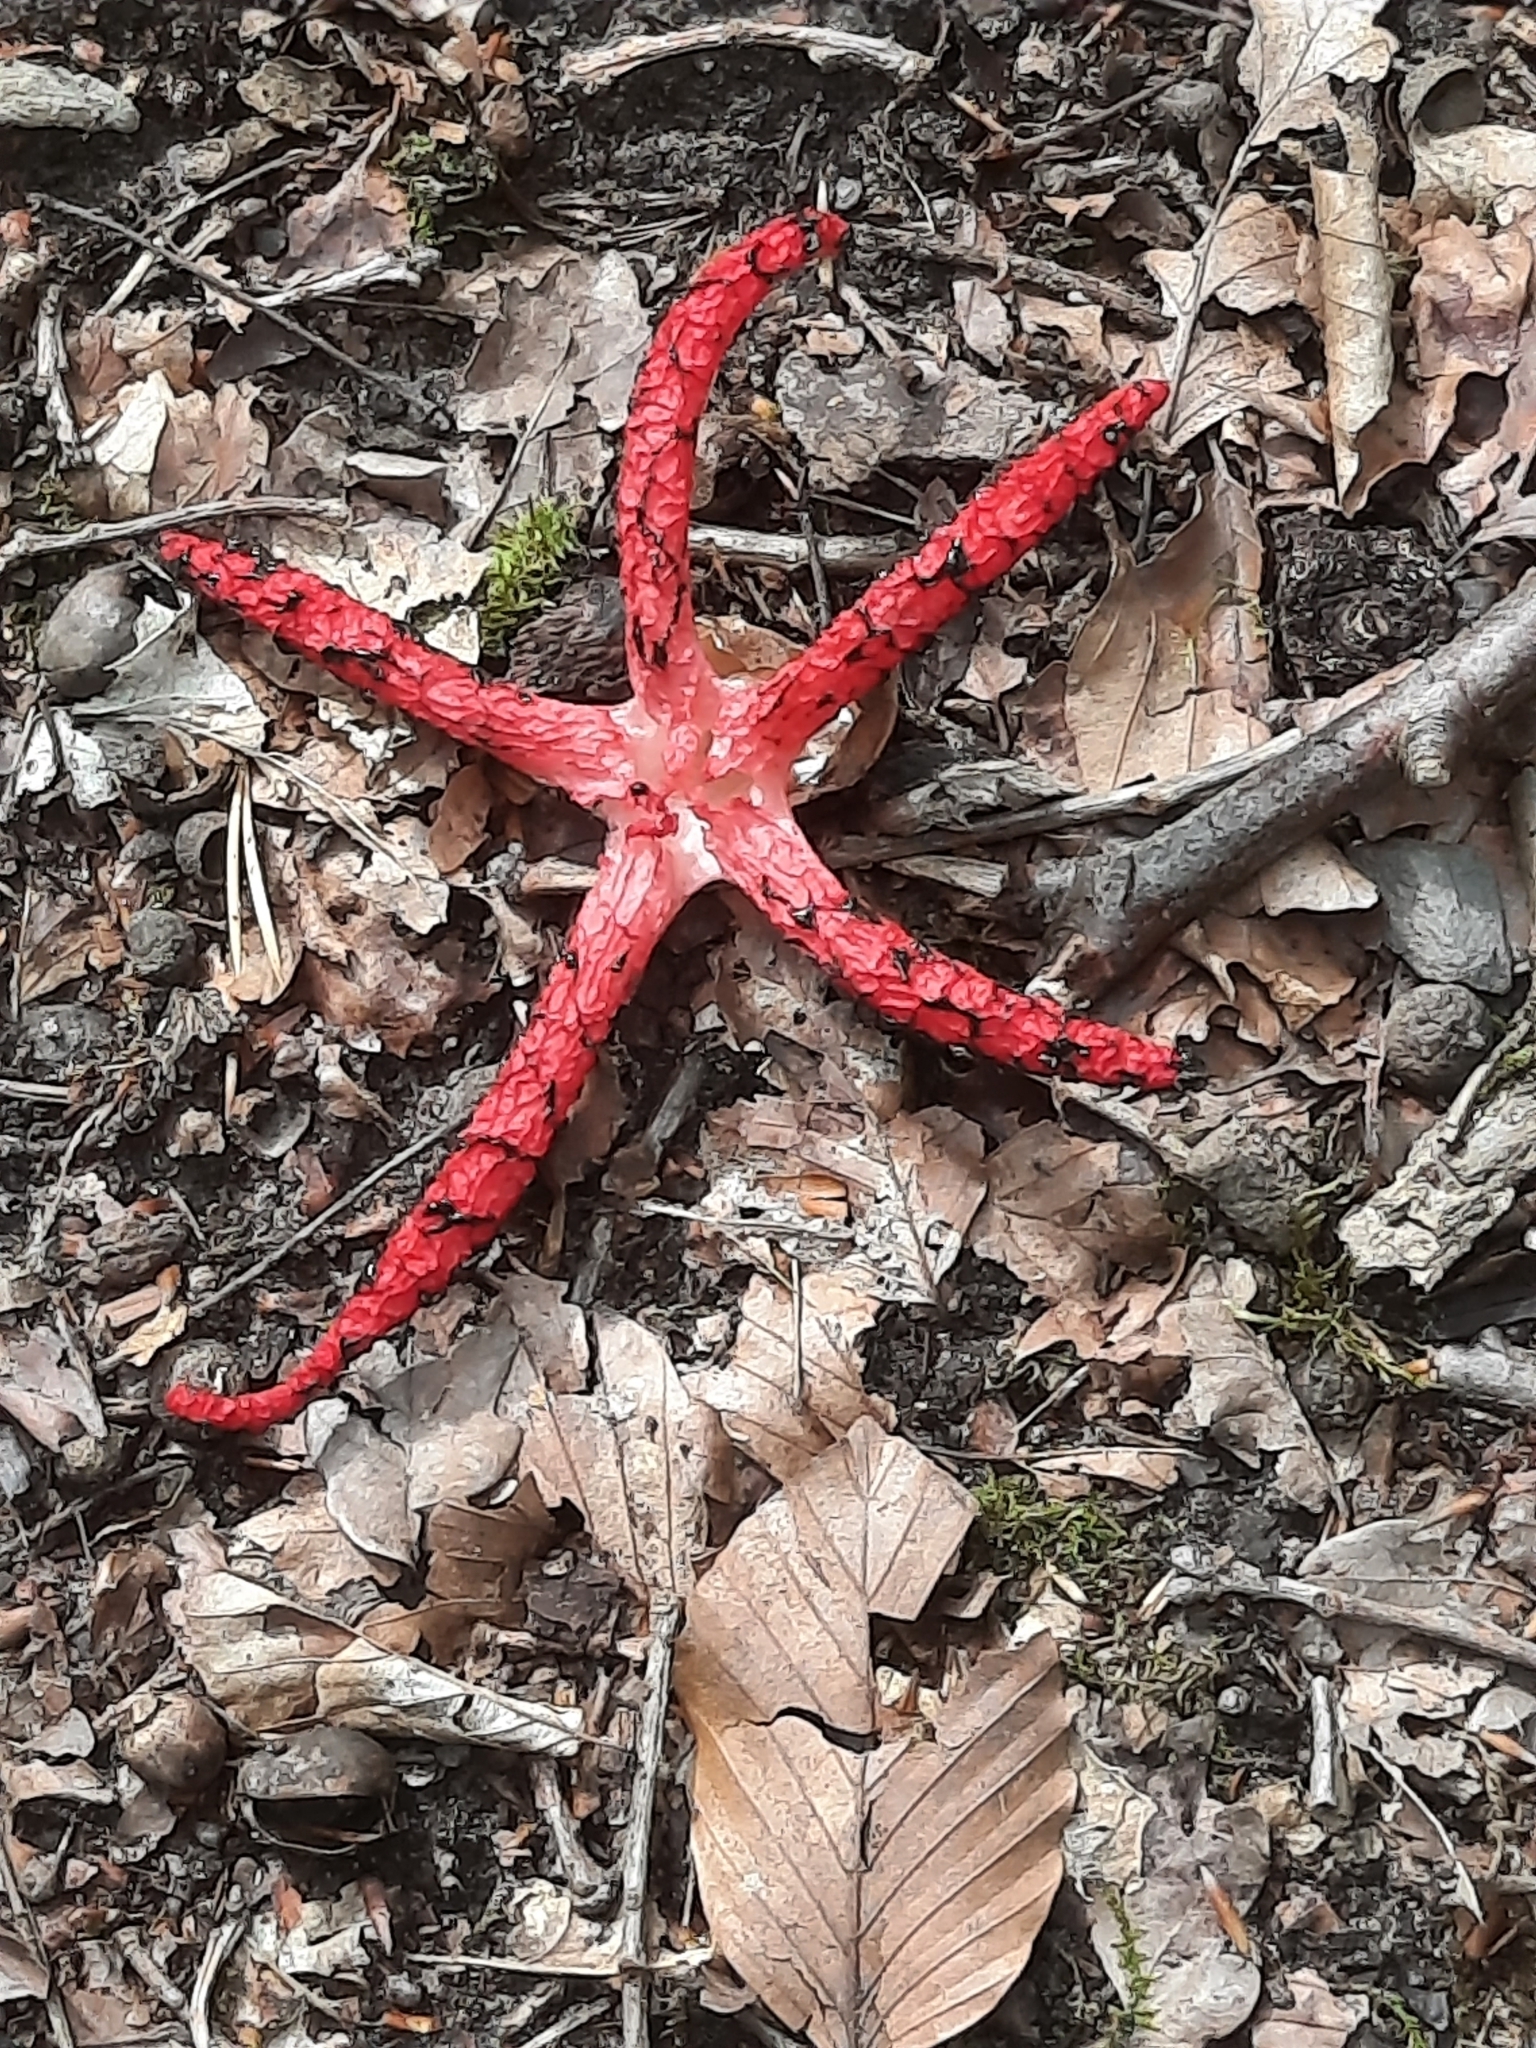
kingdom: Fungi
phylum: Basidiomycota
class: Agaricomycetes
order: Phallales
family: Phallaceae
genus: Clathrus
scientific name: Clathrus archeri
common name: Devil's fingers
